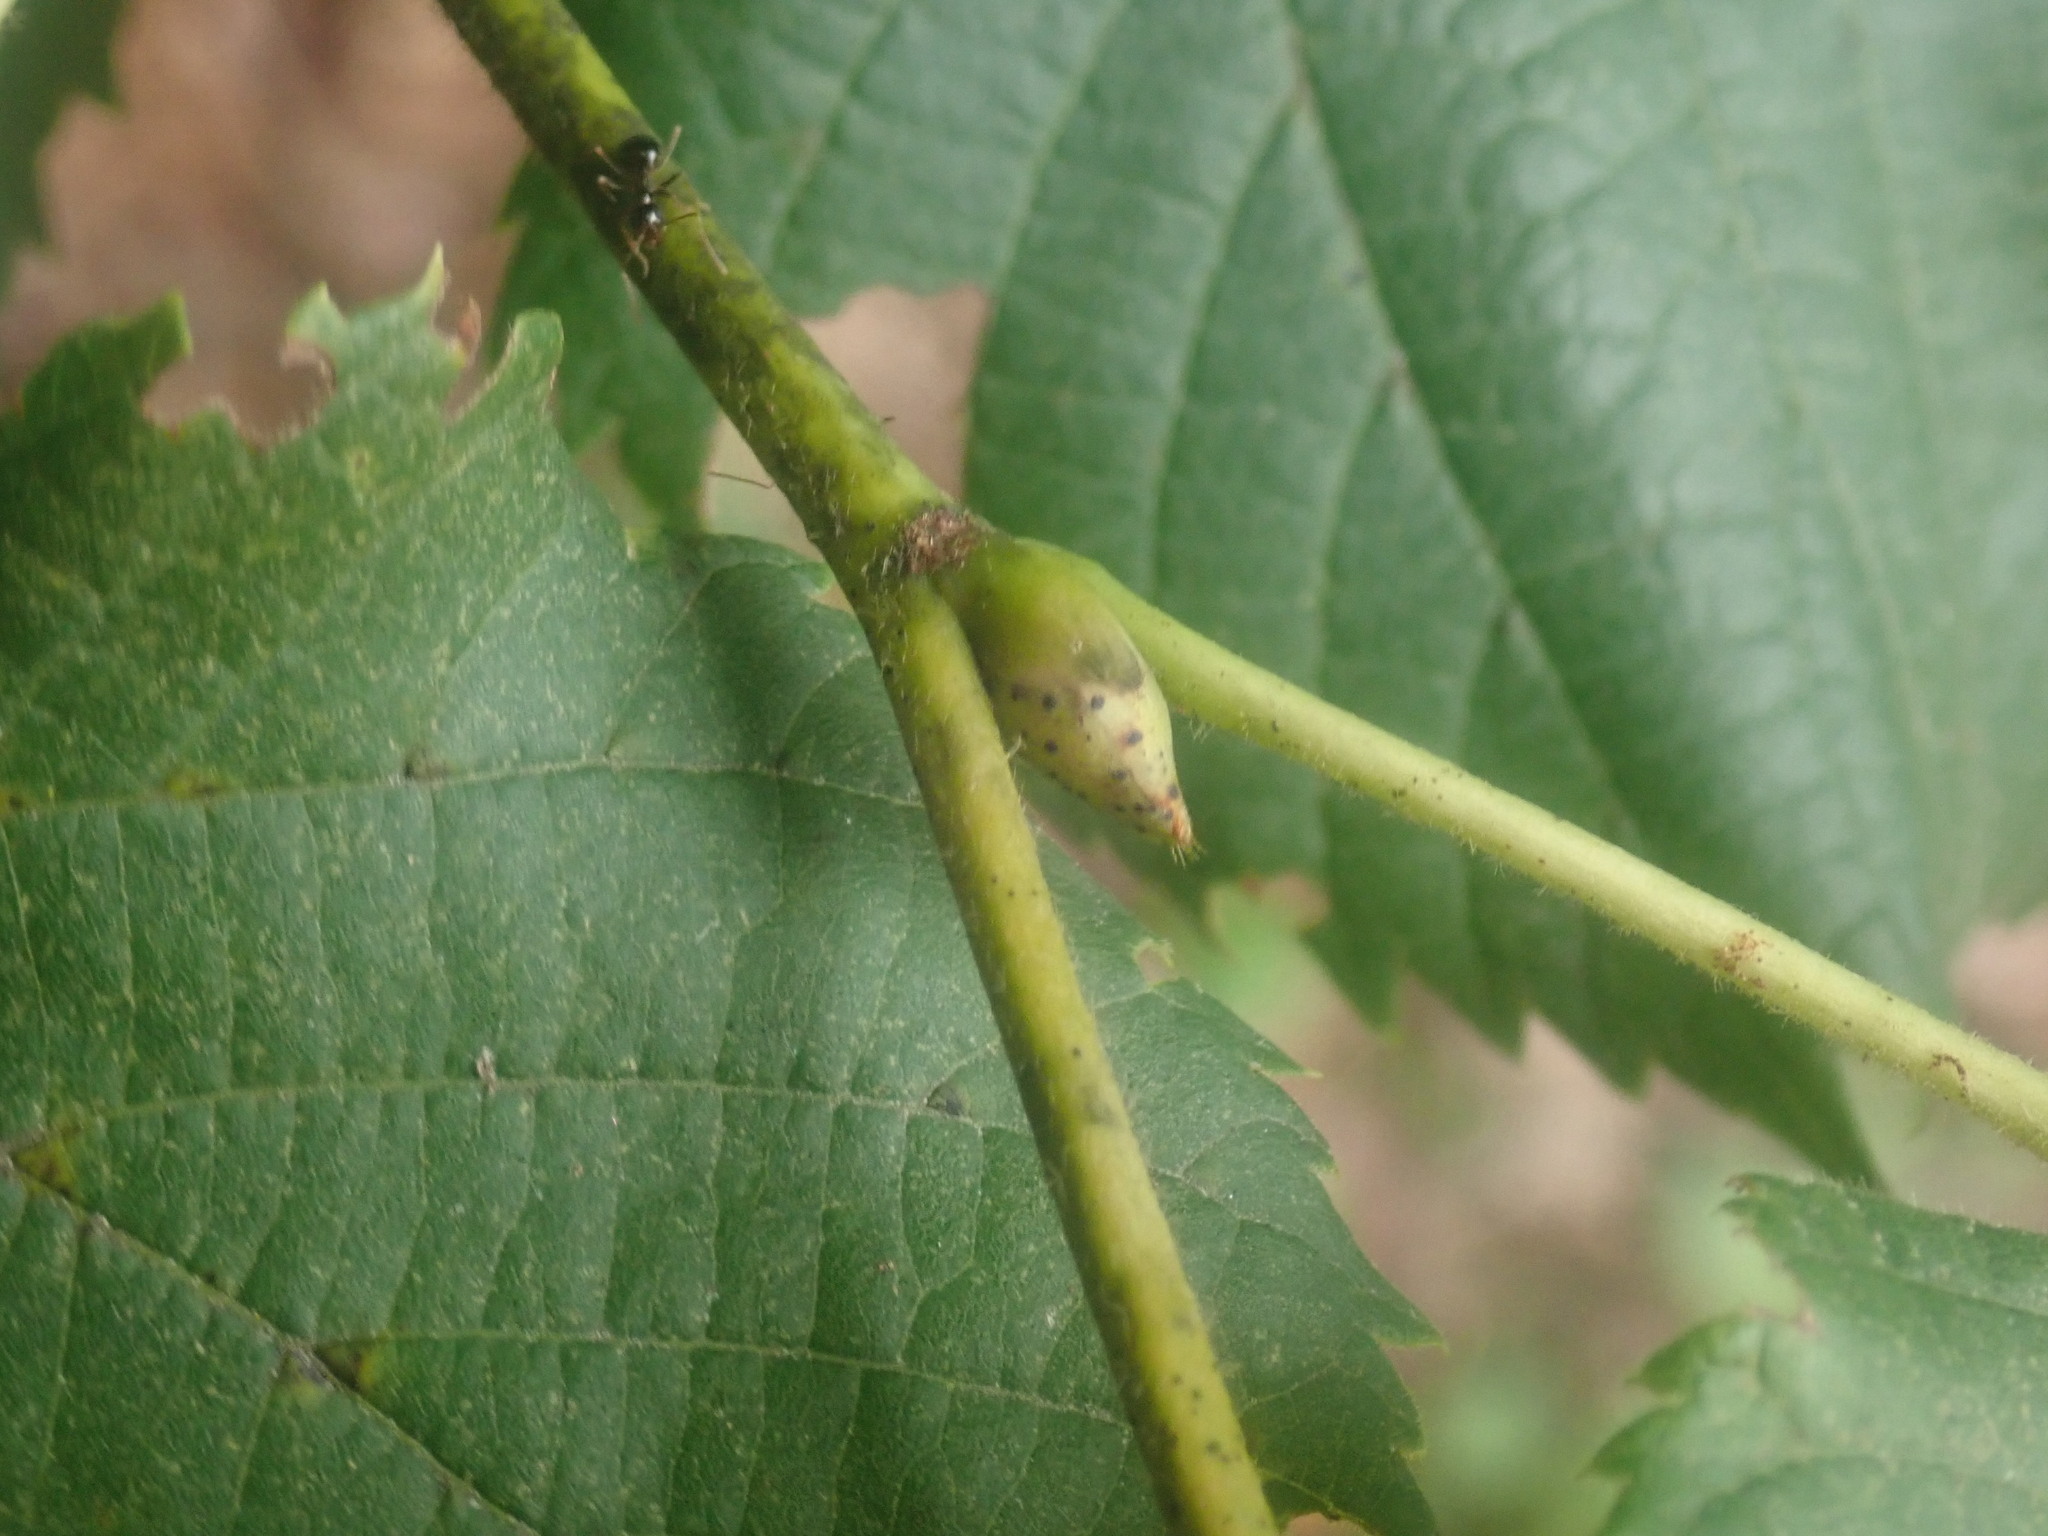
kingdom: Plantae
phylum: Tracheophyta
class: Magnoliopsida
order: Malvales
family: Malvaceae
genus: Tilia
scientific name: Tilia americana
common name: Basswood
